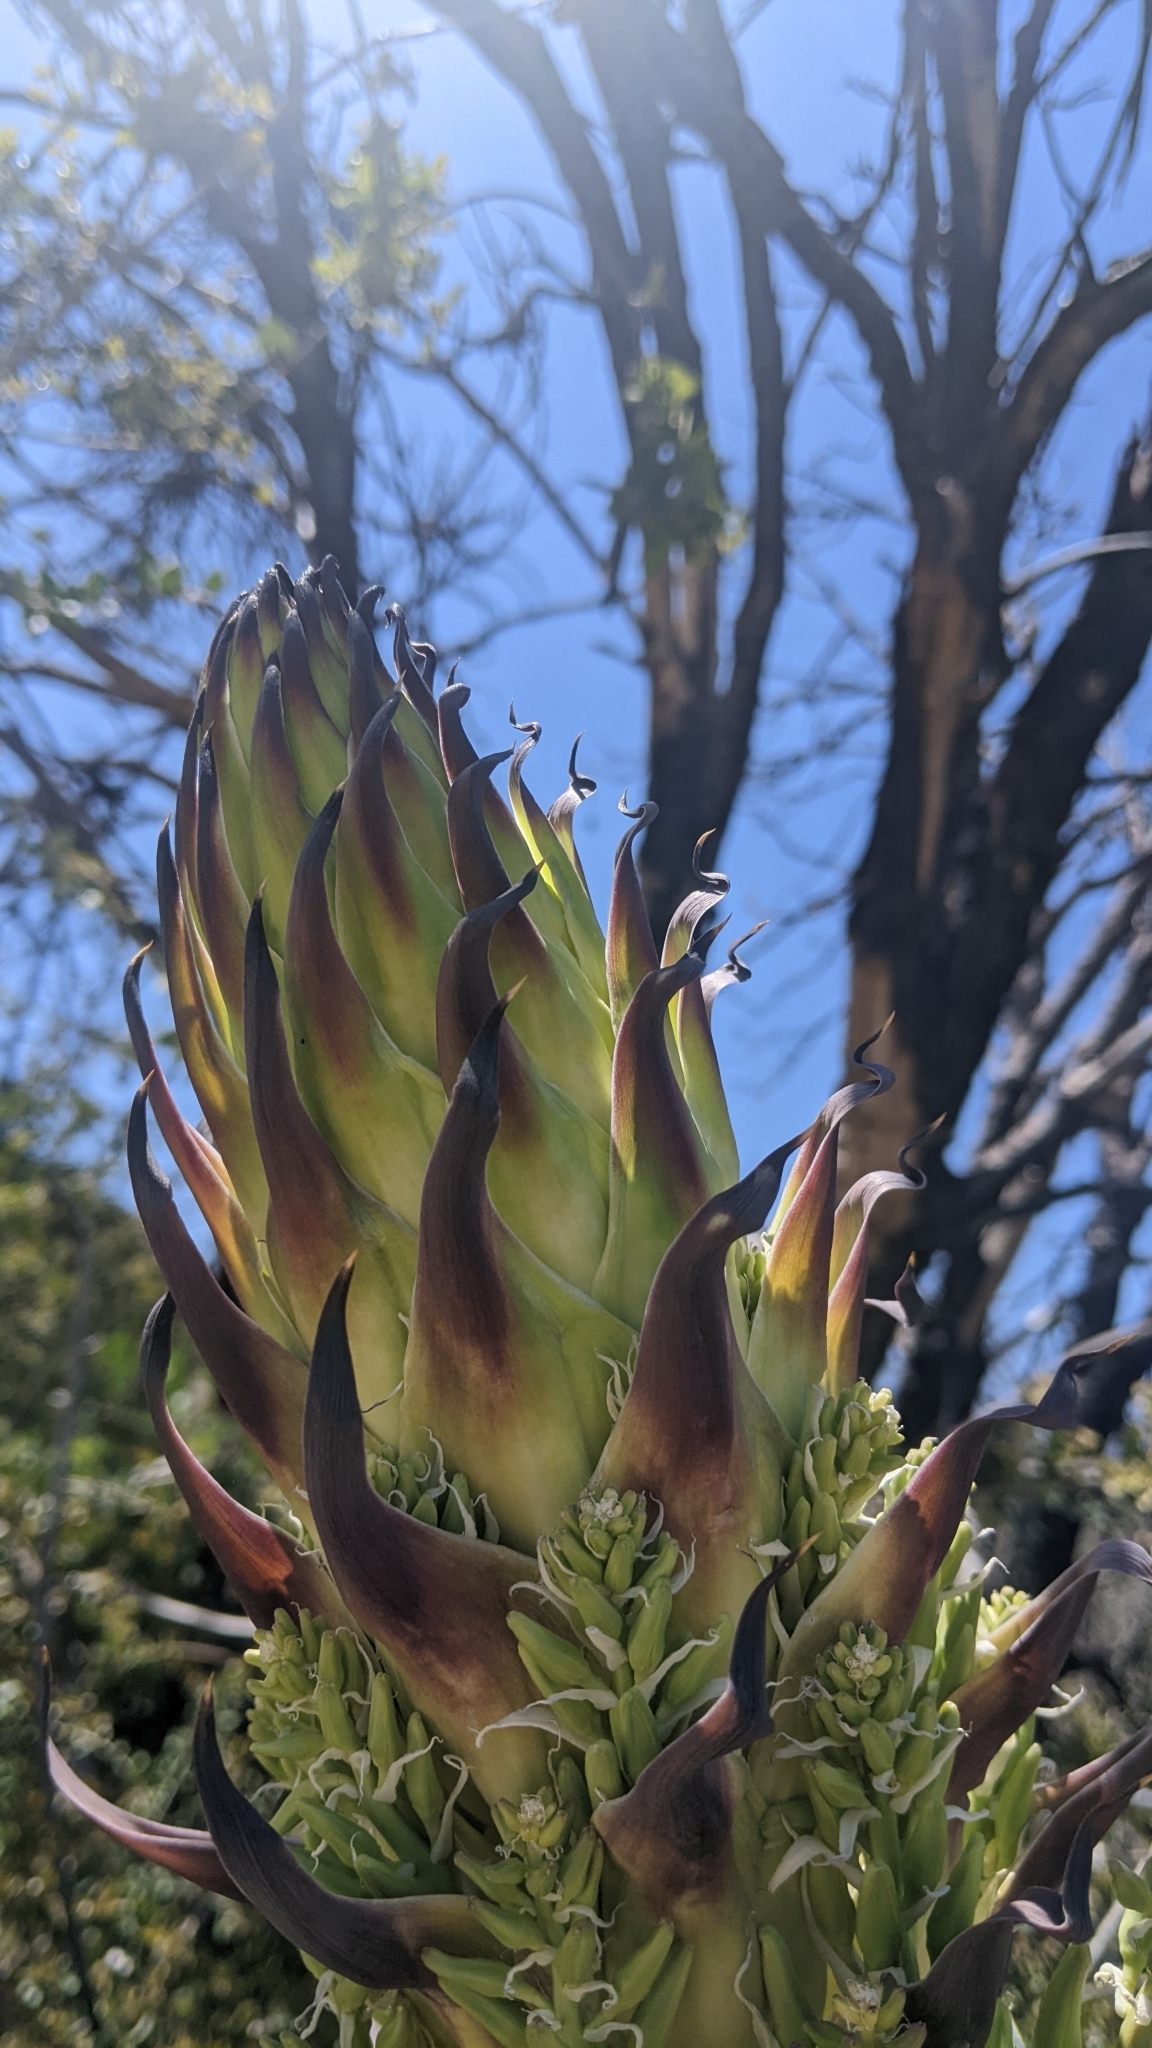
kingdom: Plantae
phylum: Tracheophyta
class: Liliopsida
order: Asparagales
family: Asparagaceae
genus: Hesperoyucca
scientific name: Hesperoyucca whipplei
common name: Our lord's-candle
